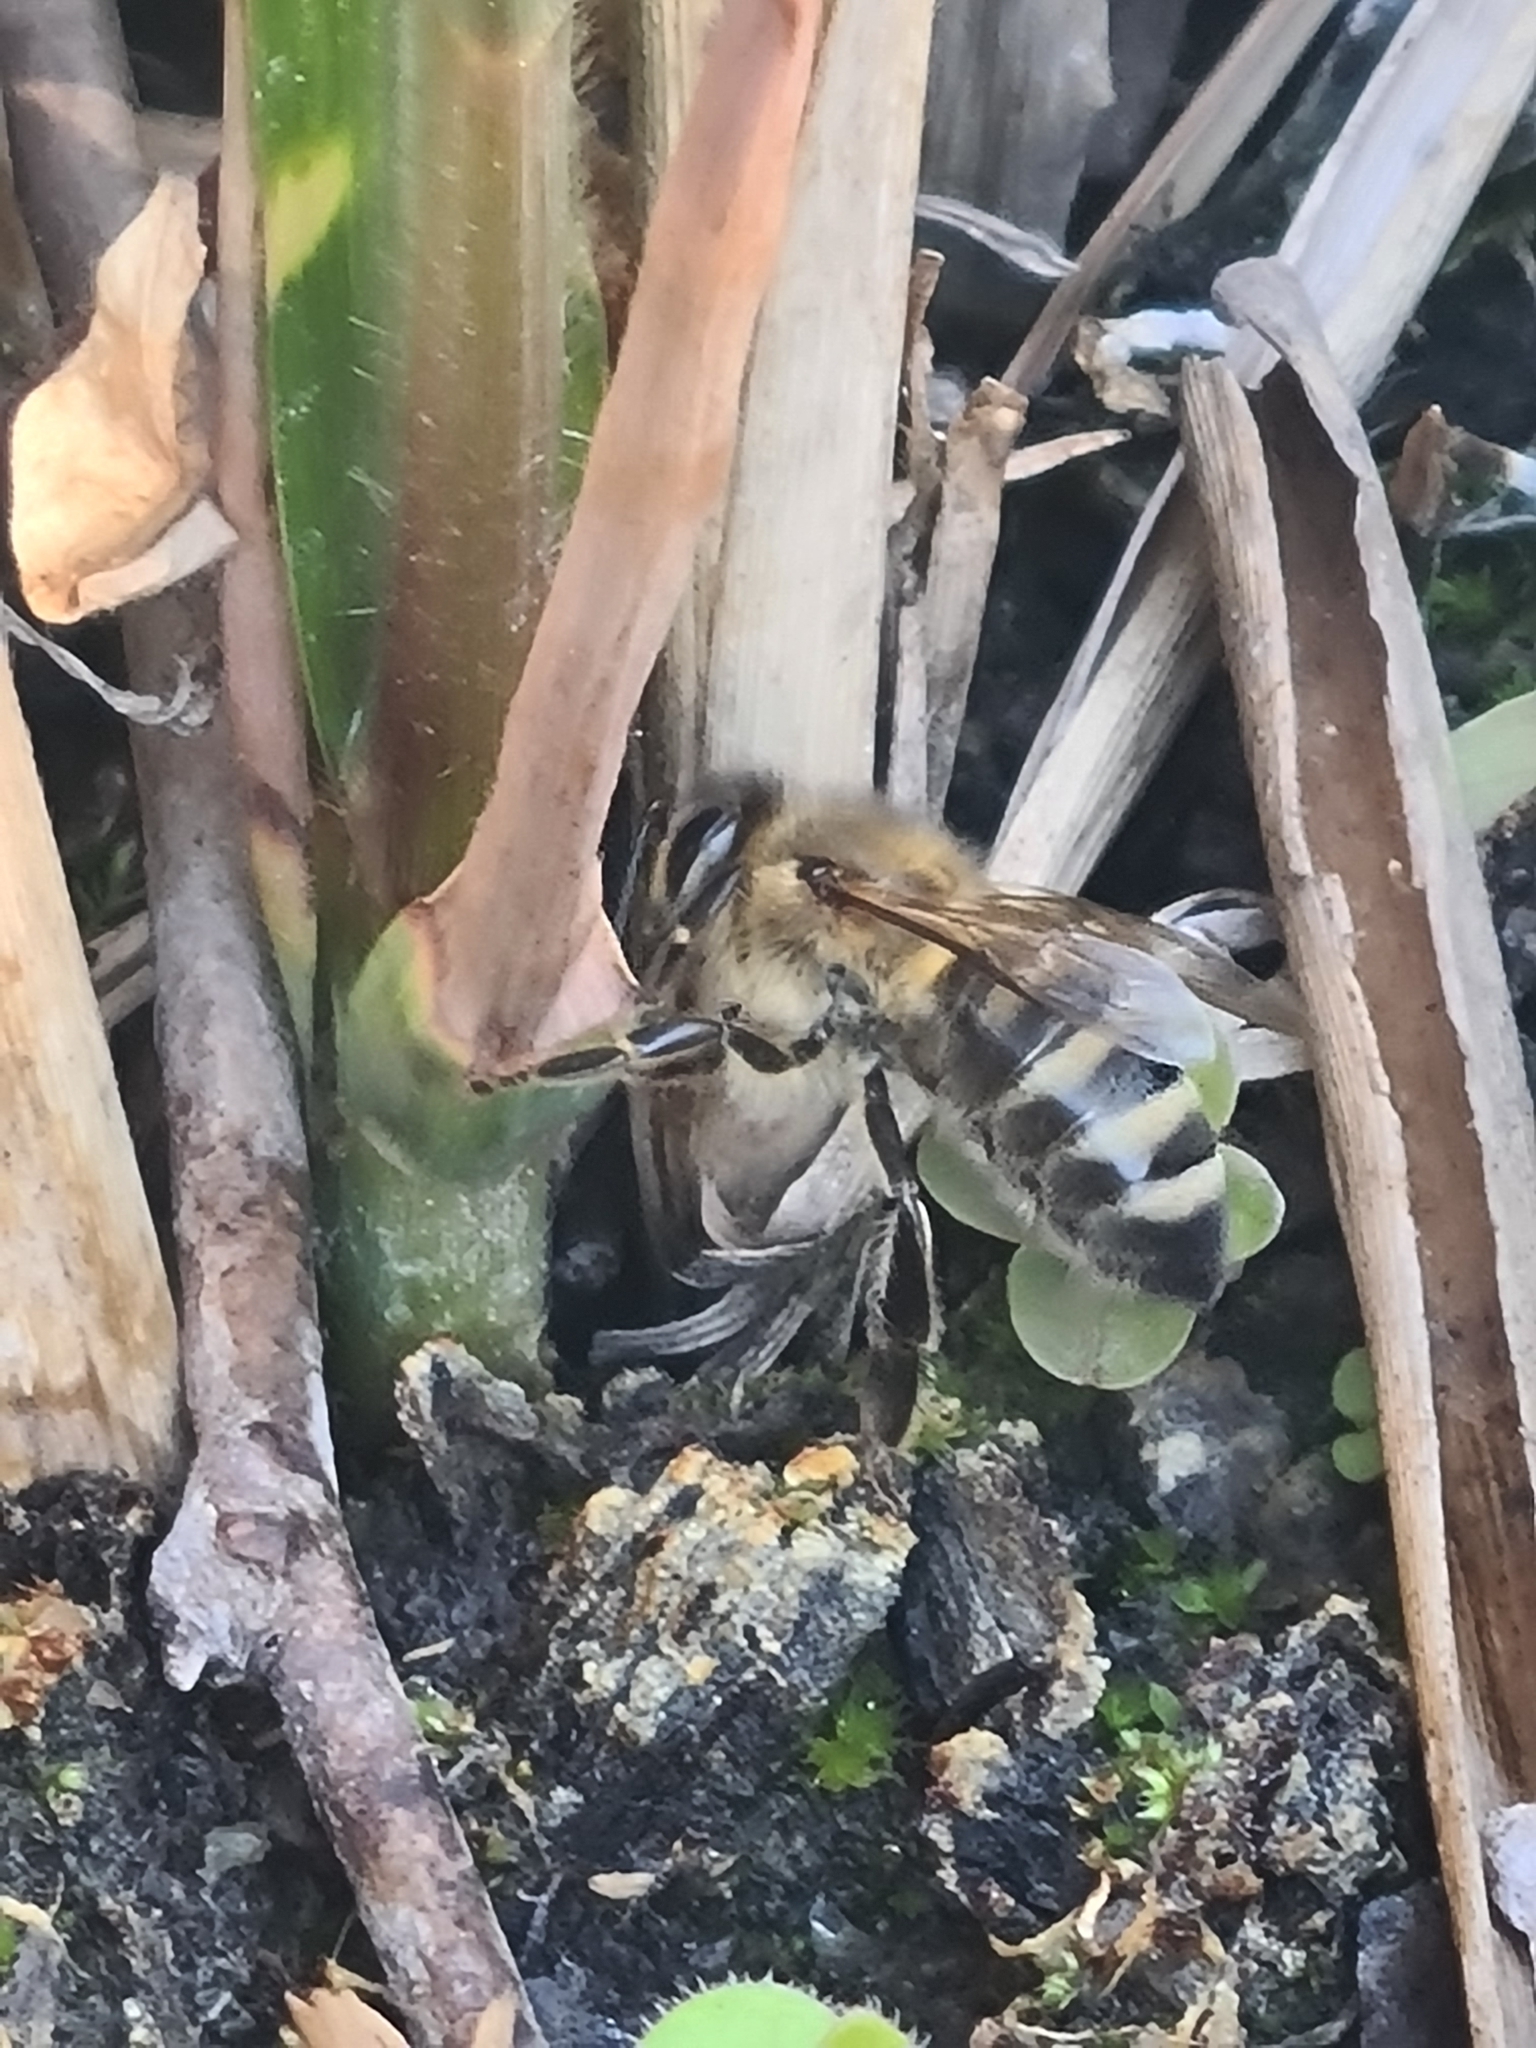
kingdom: Animalia
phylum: Arthropoda
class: Insecta
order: Hymenoptera
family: Apidae
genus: Apis
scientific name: Apis mellifera
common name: Honey bee
